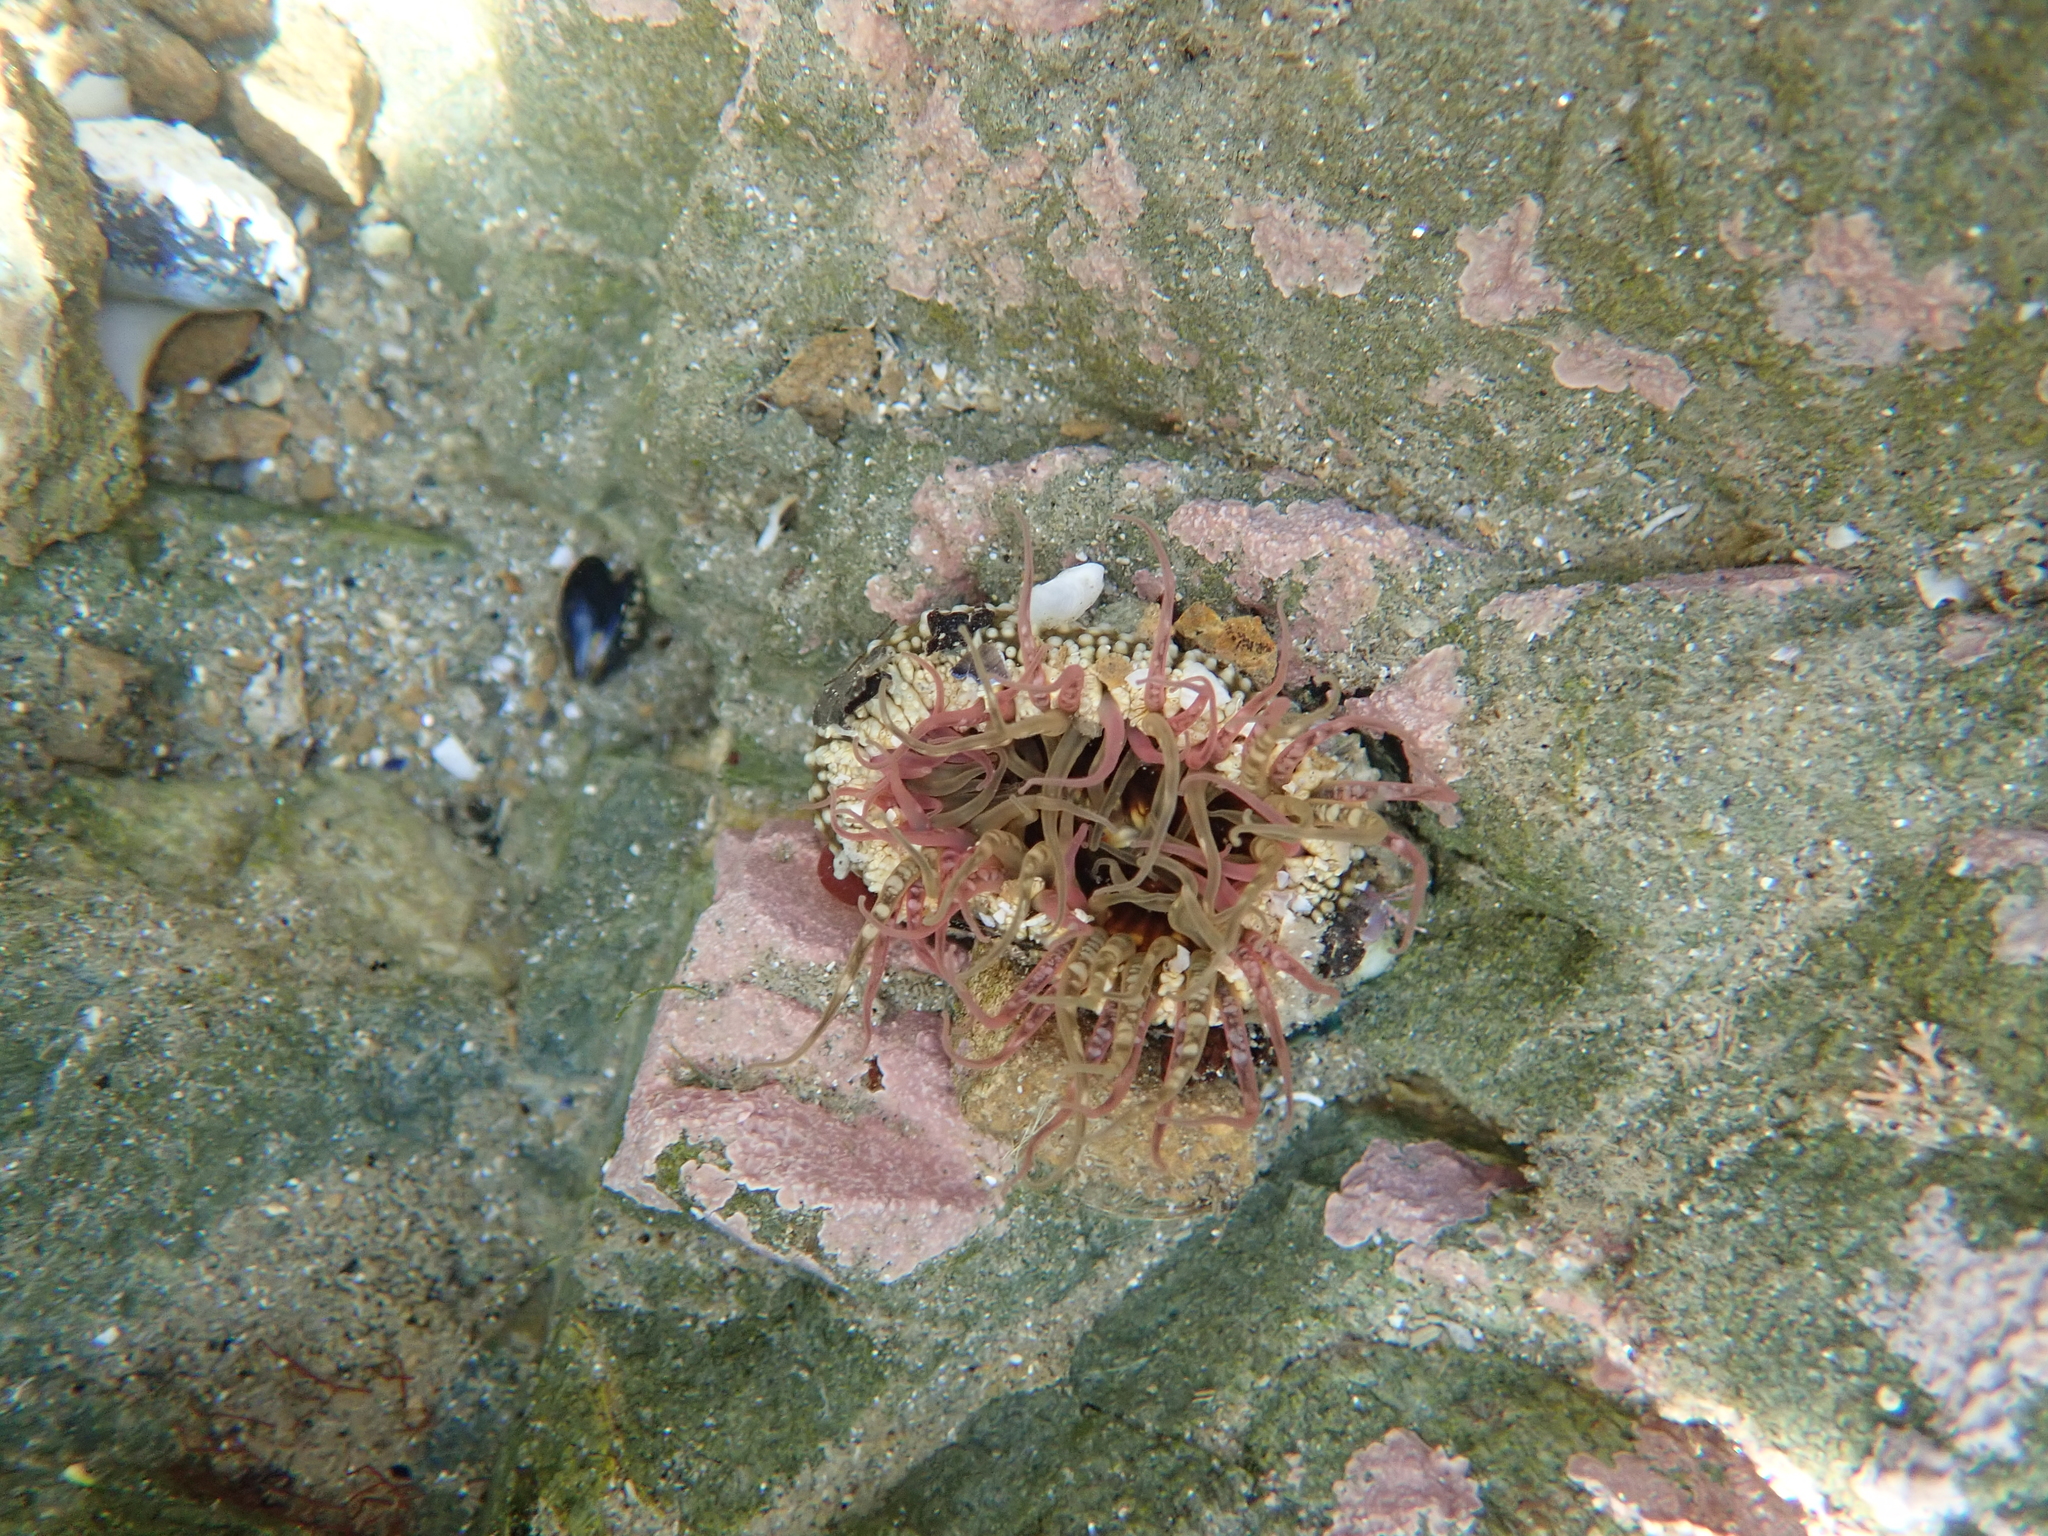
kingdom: Animalia
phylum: Cnidaria
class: Anthozoa
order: Actiniaria
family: Actiniidae
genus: Oulactis
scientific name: Oulactis muscosa
